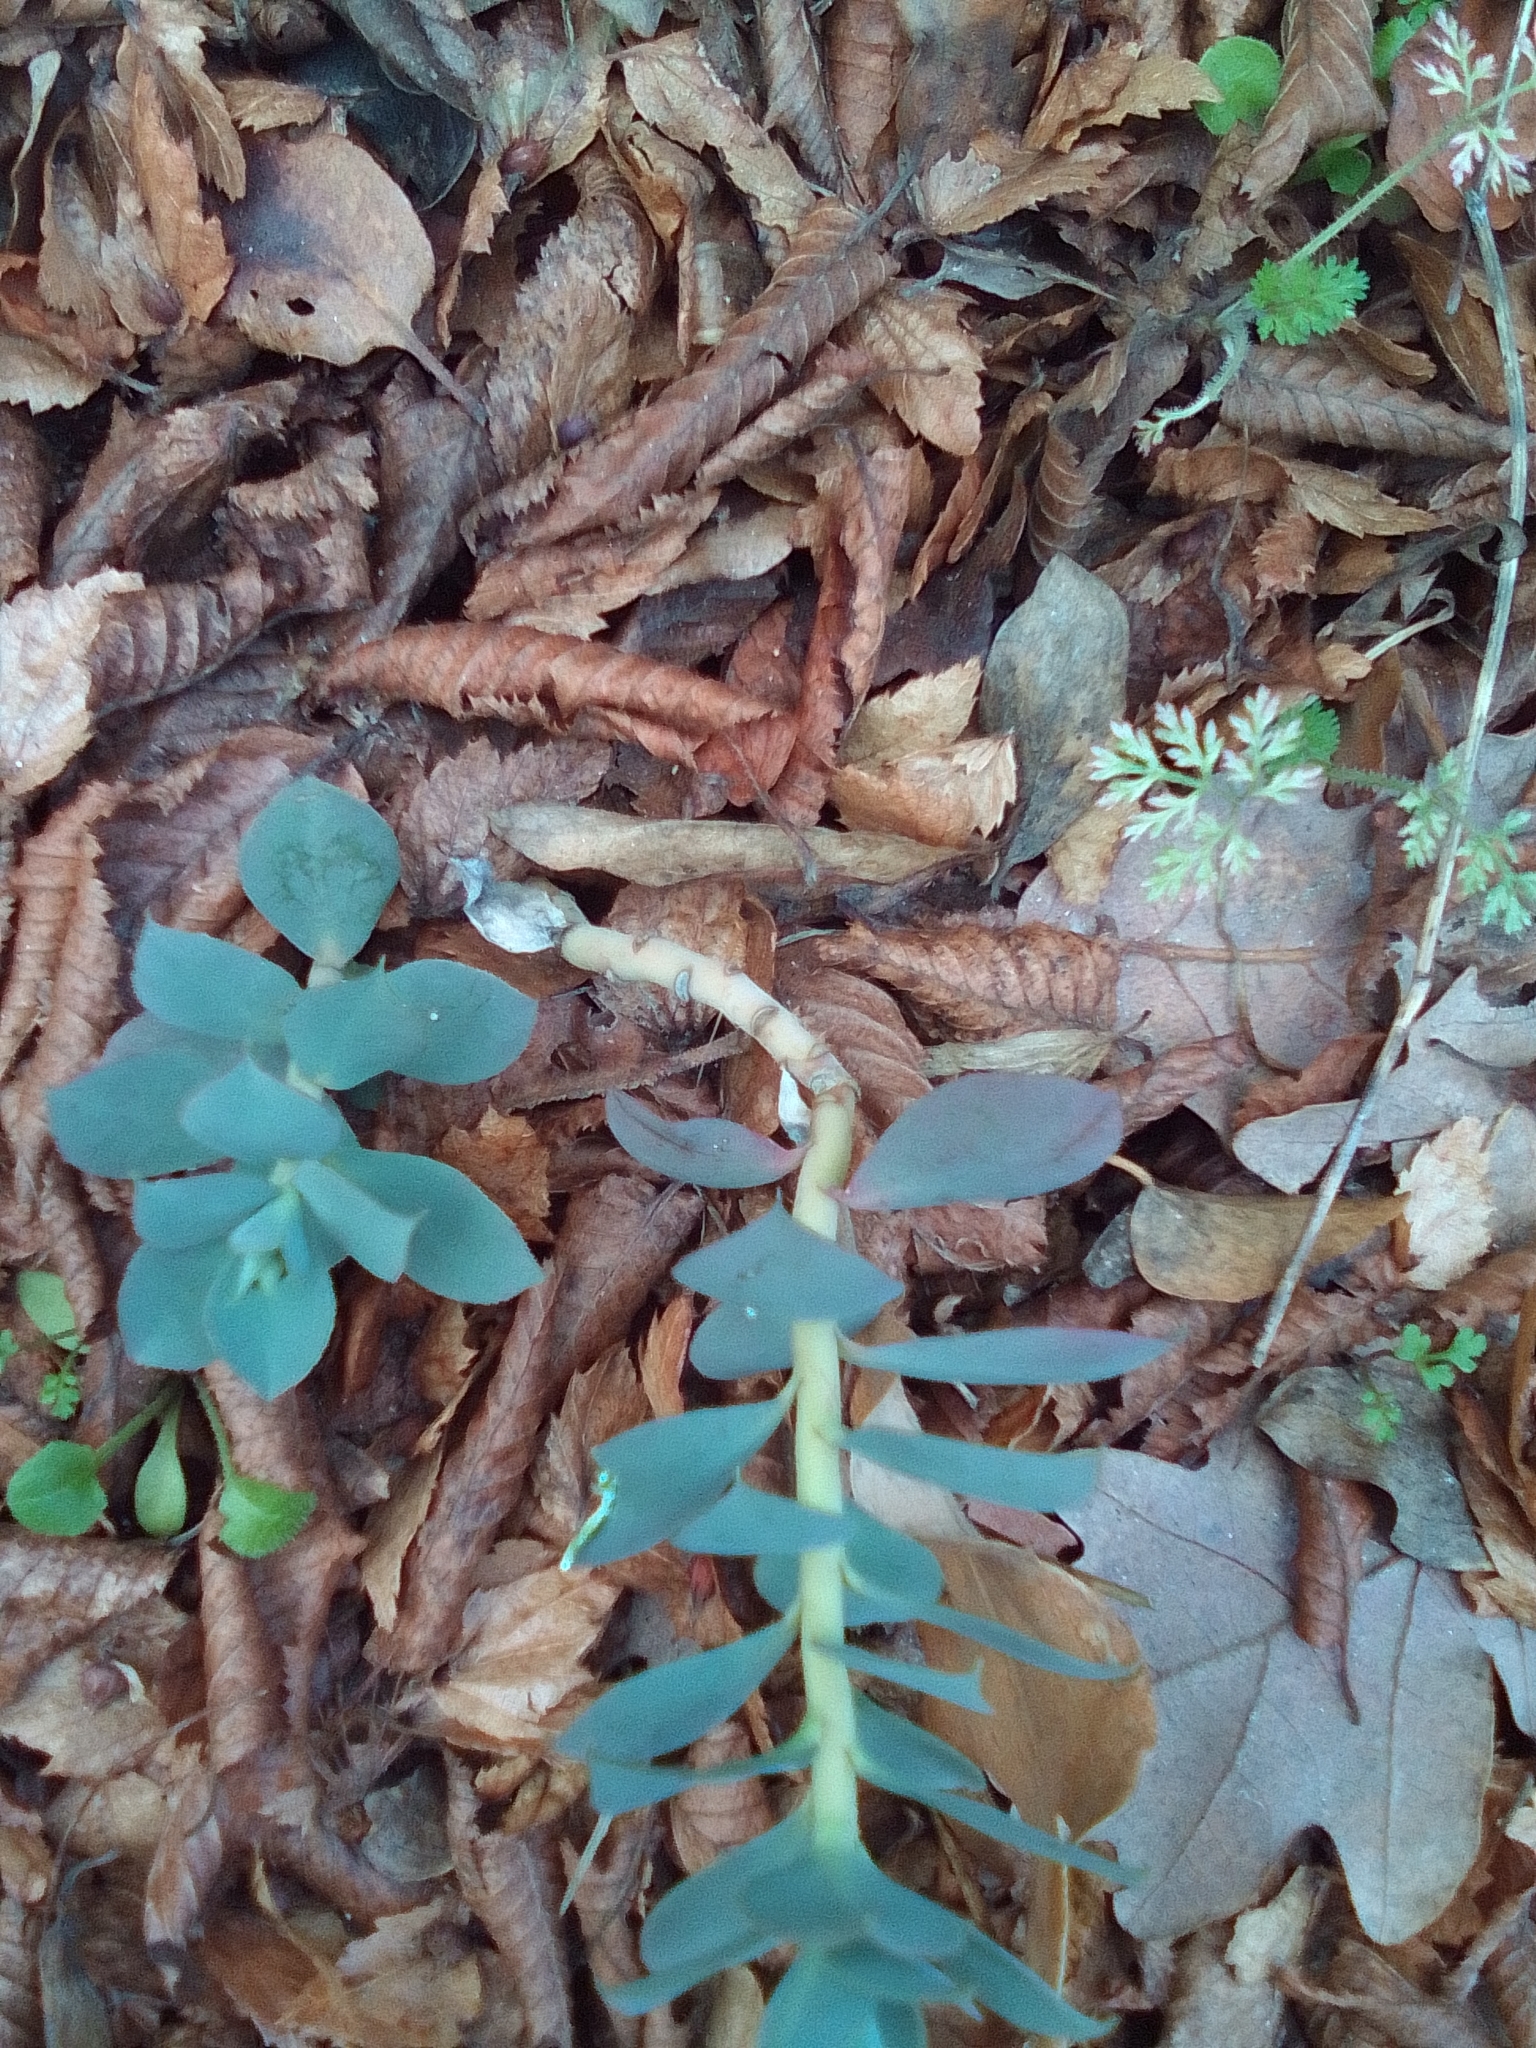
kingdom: Plantae
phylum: Tracheophyta
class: Magnoliopsida
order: Malpighiales
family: Euphorbiaceae
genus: Euphorbia
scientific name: Euphorbia myrsinites
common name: Myrtle spurge
